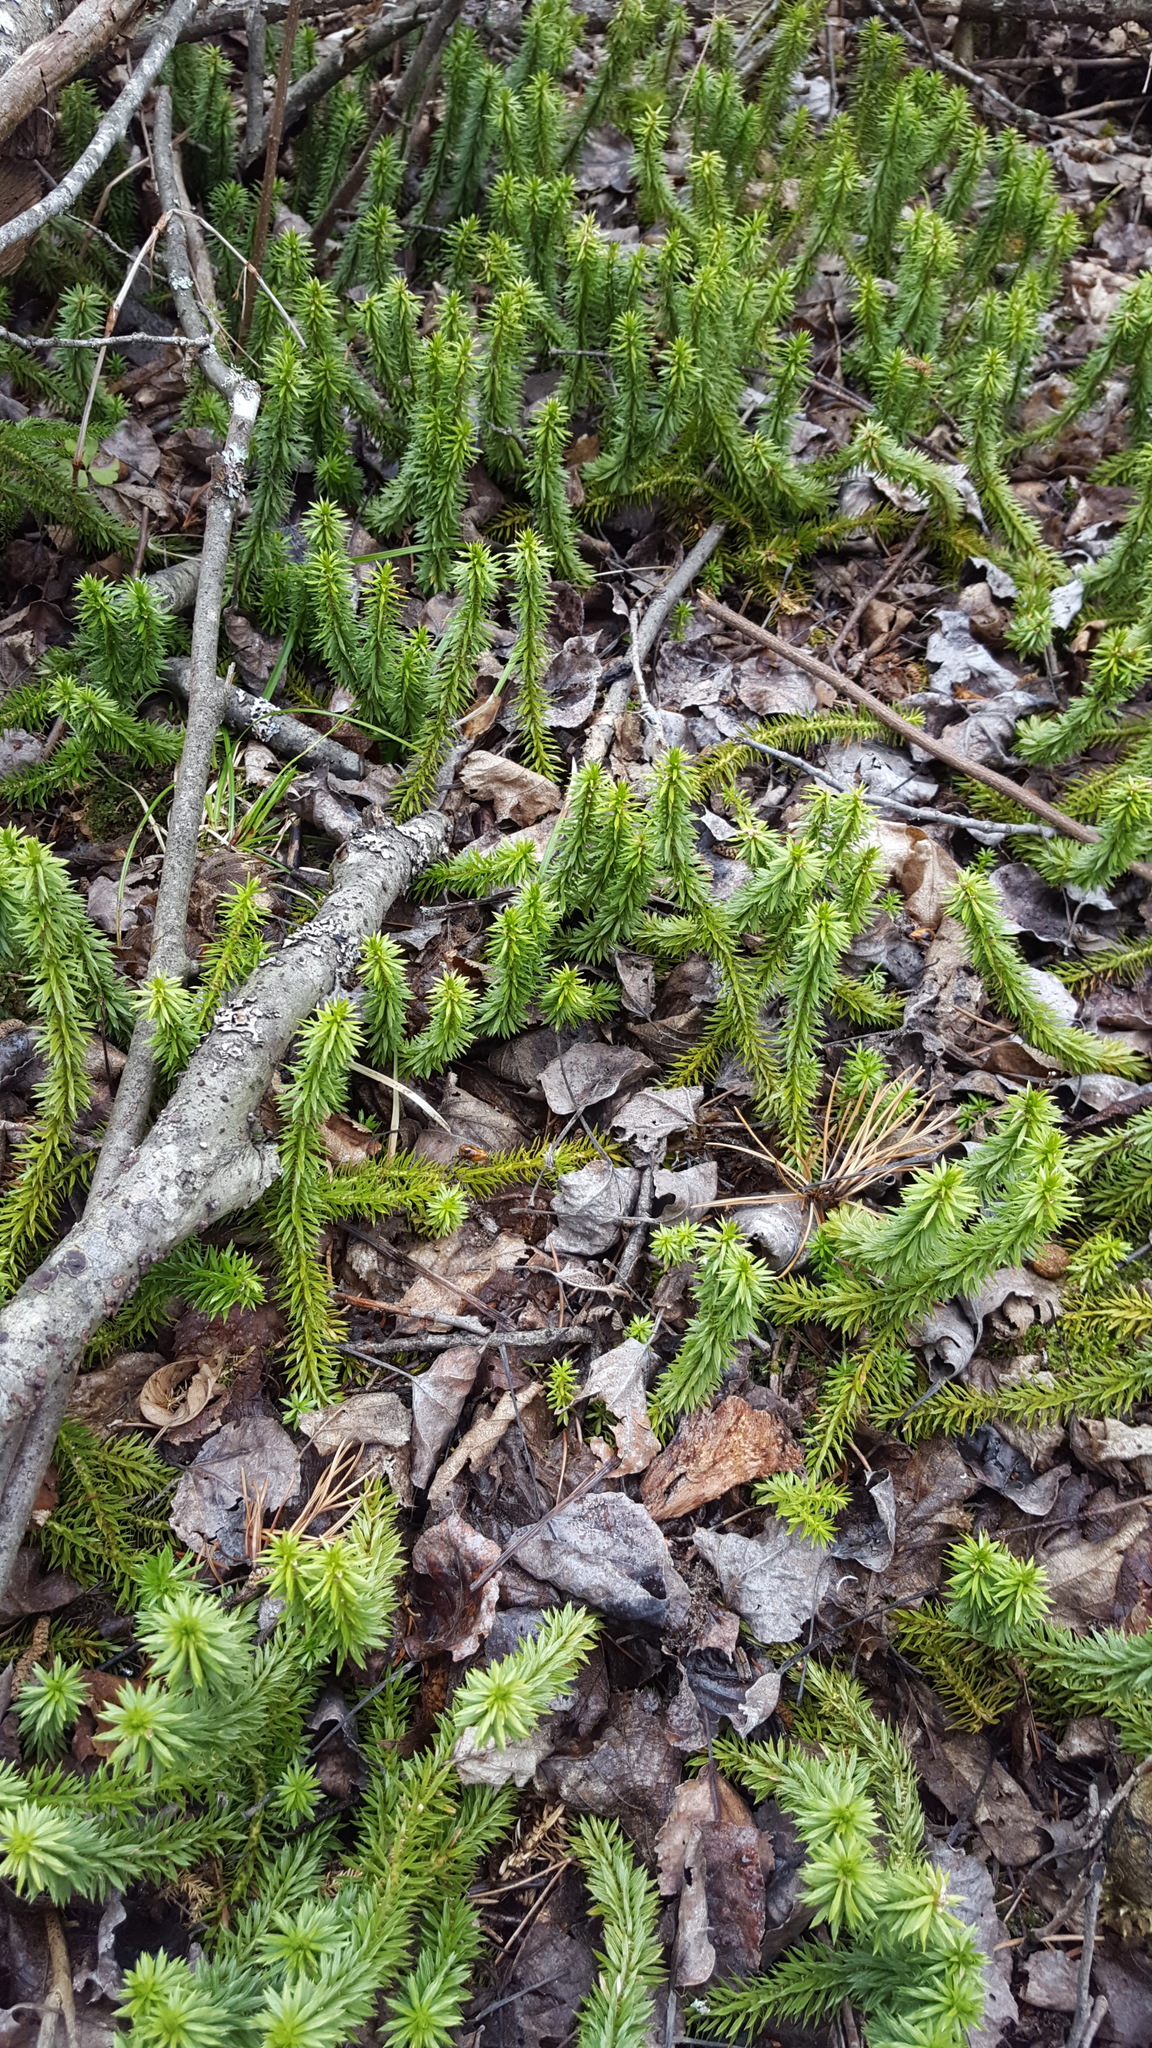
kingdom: Plantae
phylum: Tracheophyta
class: Lycopodiopsida
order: Lycopodiales
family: Lycopodiaceae
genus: Huperzia
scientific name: Huperzia lucidula
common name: Shining clubmoss
